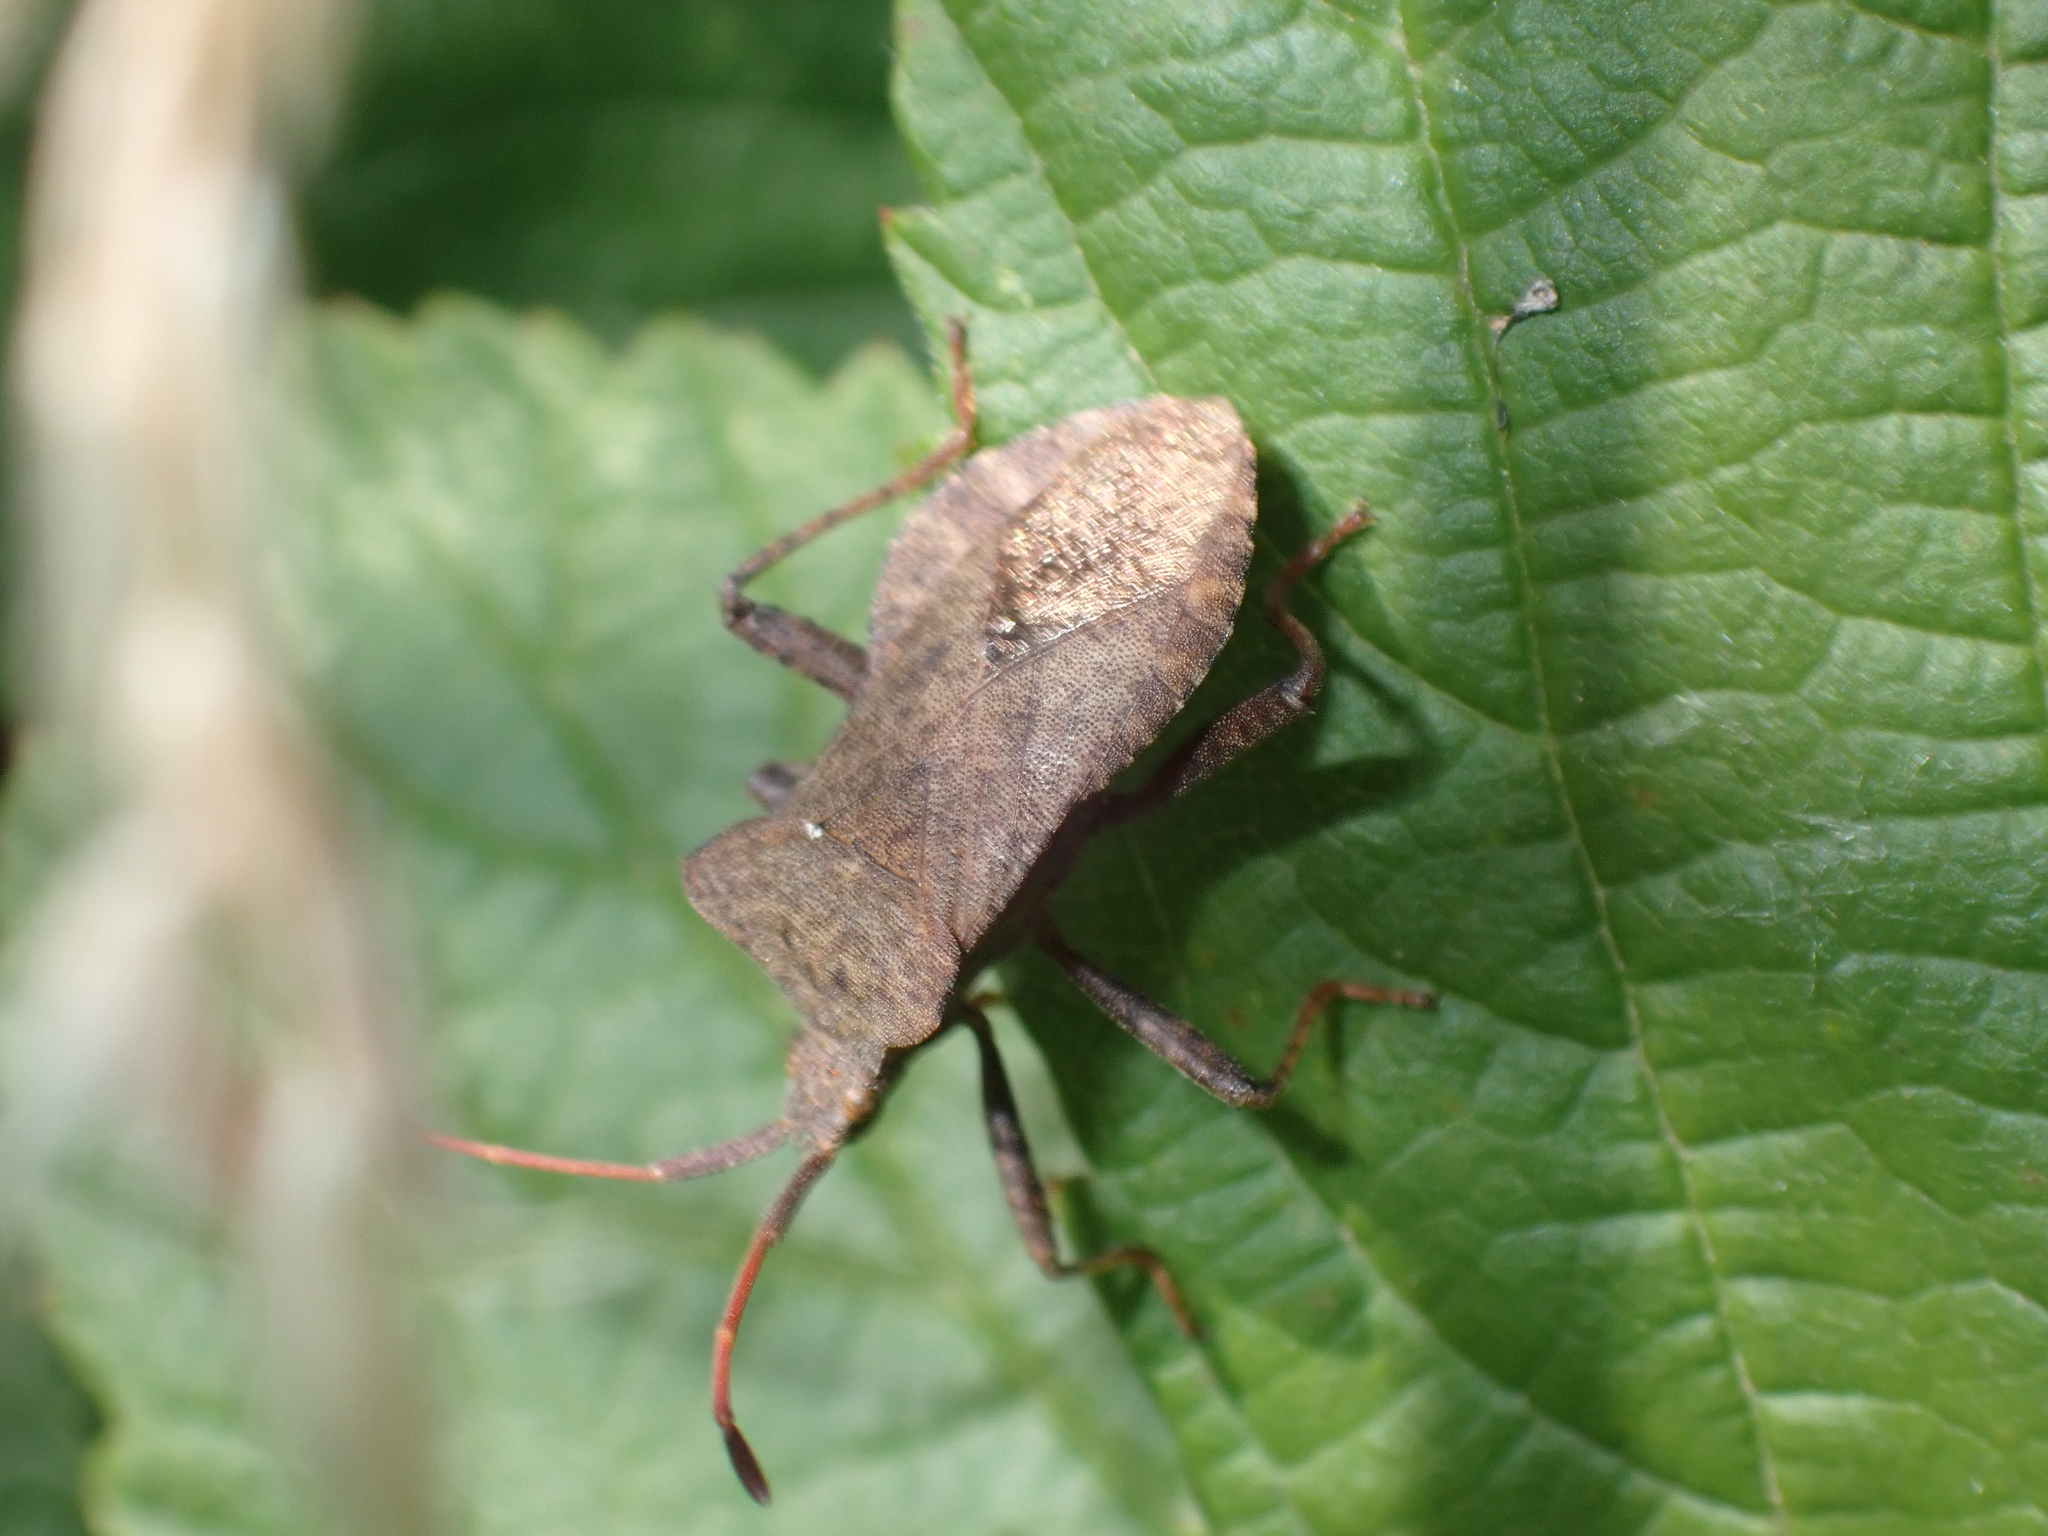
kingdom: Animalia
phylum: Arthropoda
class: Insecta
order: Hemiptera
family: Coreidae
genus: Coreus
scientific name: Coreus marginatus
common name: Dock bug
